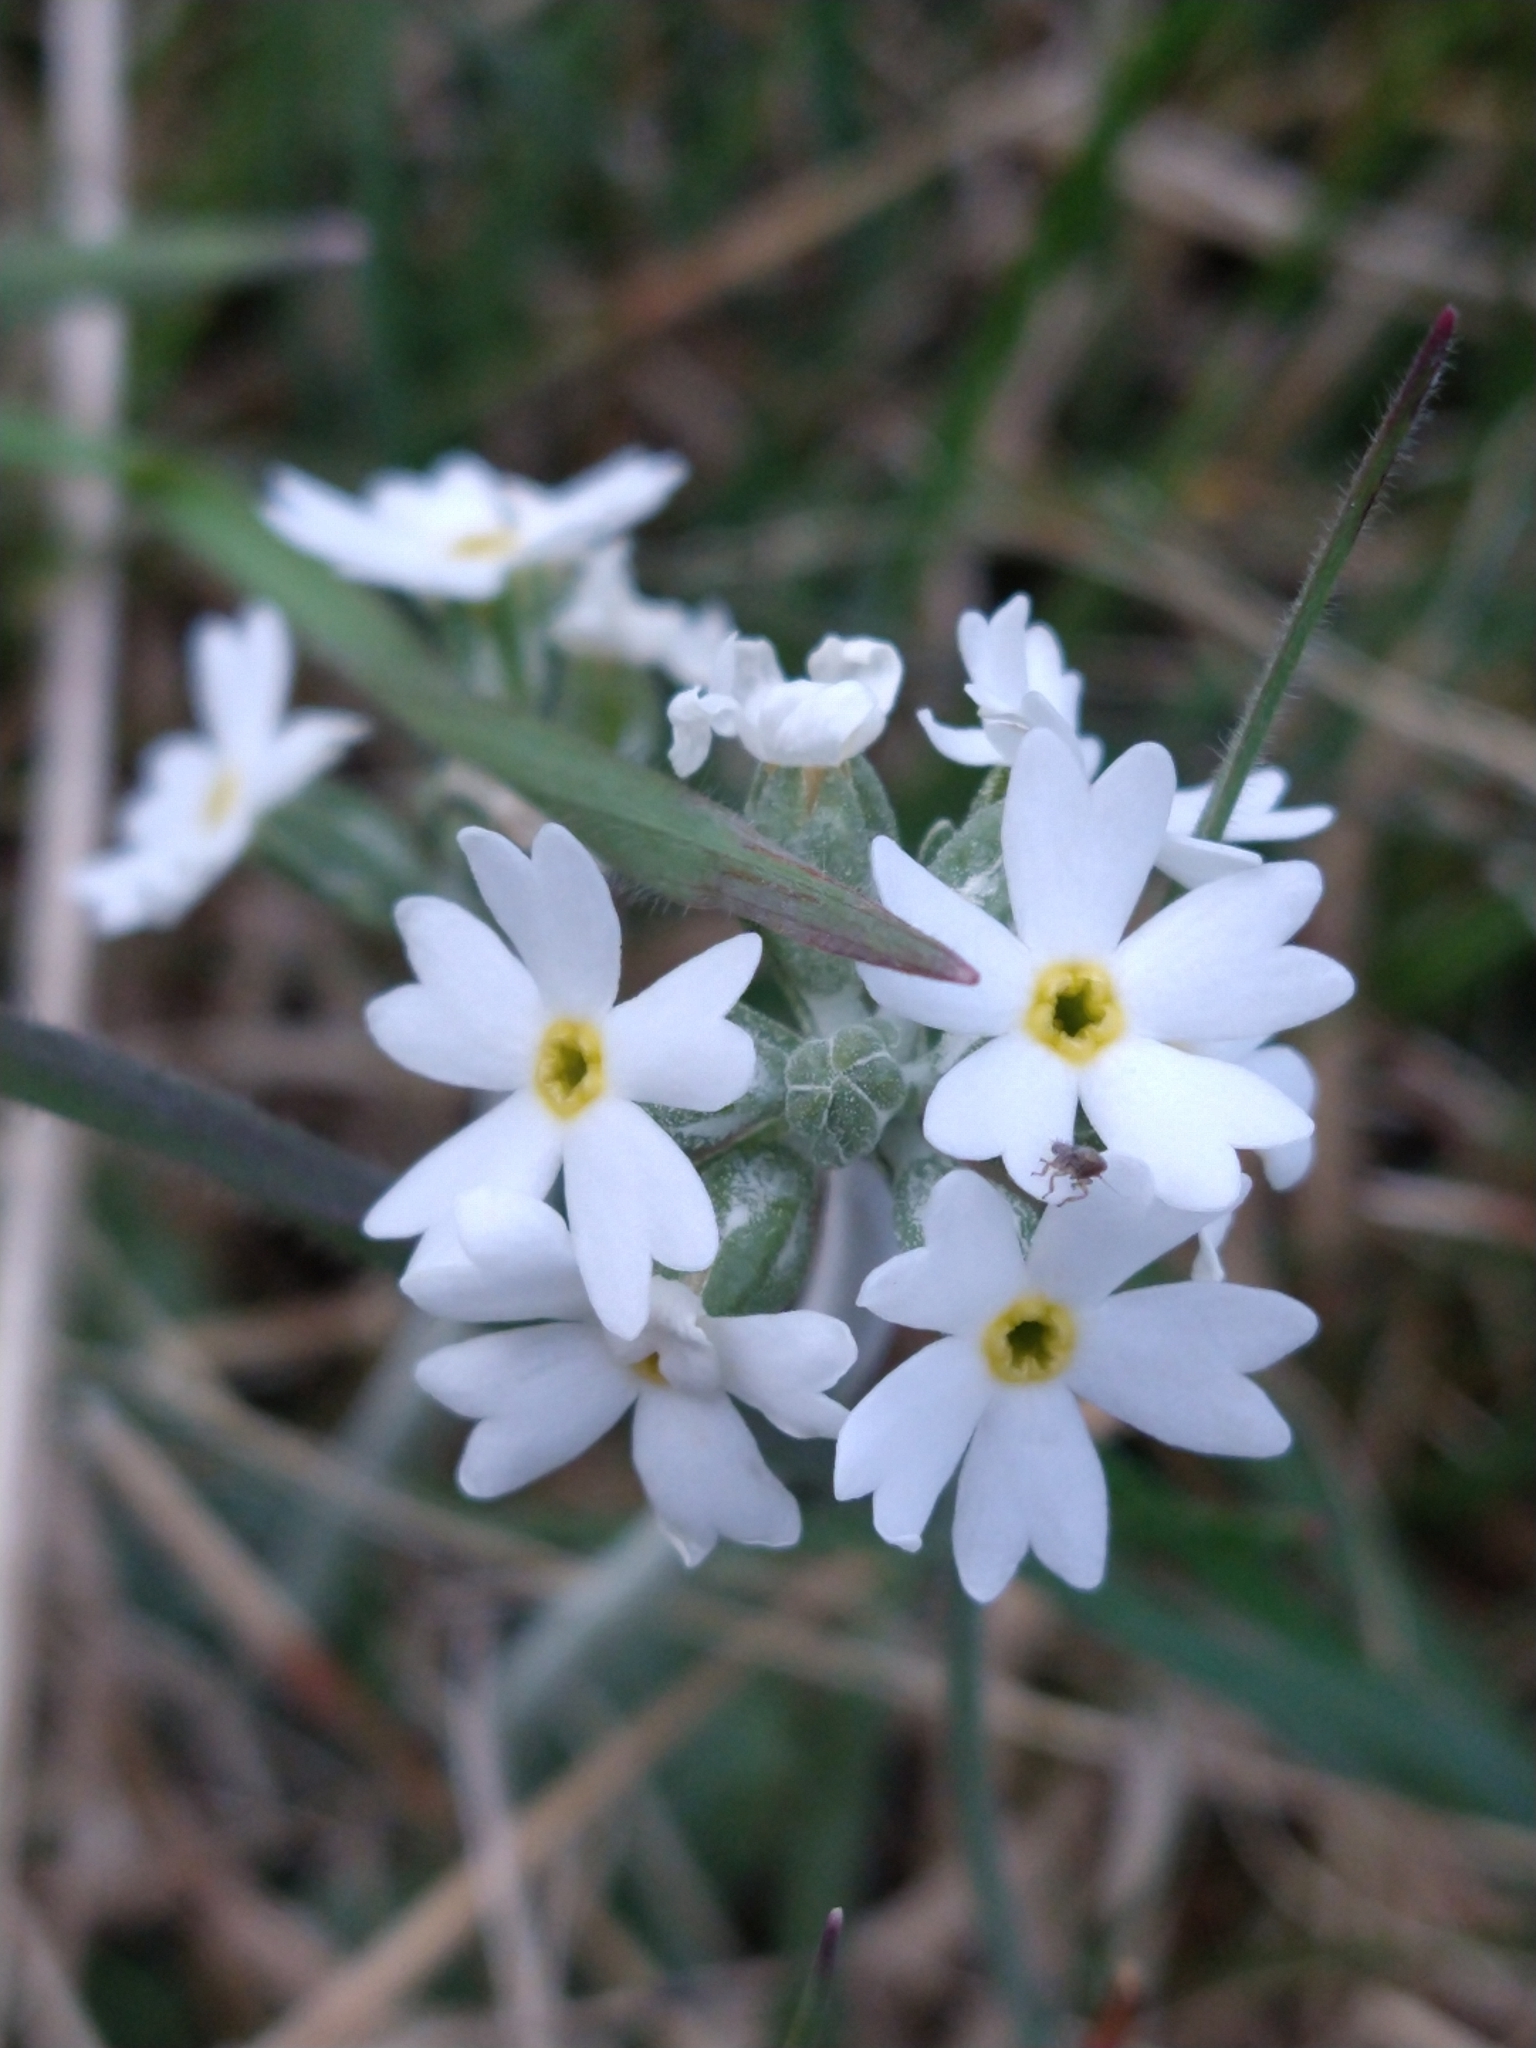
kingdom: Plantae
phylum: Tracheophyta
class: Magnoliopsida
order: Ericales
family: Primulaceae
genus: Primula
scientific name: Primula magellanica
